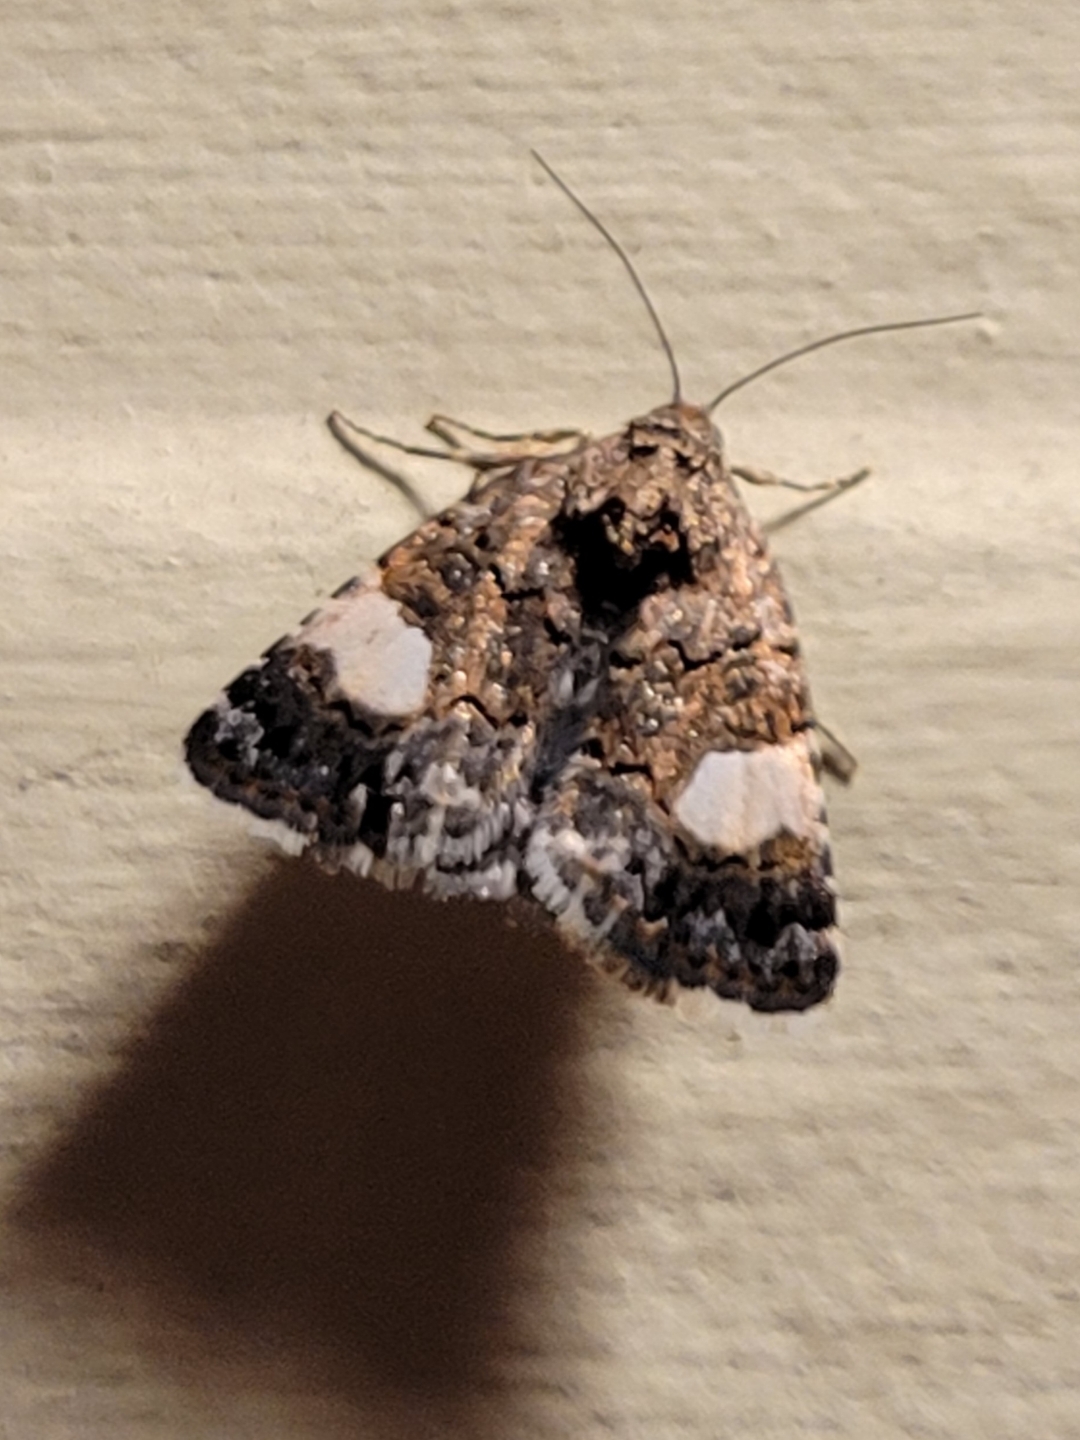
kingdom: Animalia
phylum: Arthropoda
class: Insecta
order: Lepidoptera
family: Erebidae
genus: Tyta
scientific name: Tyta luctuosa
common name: Four-spotted
